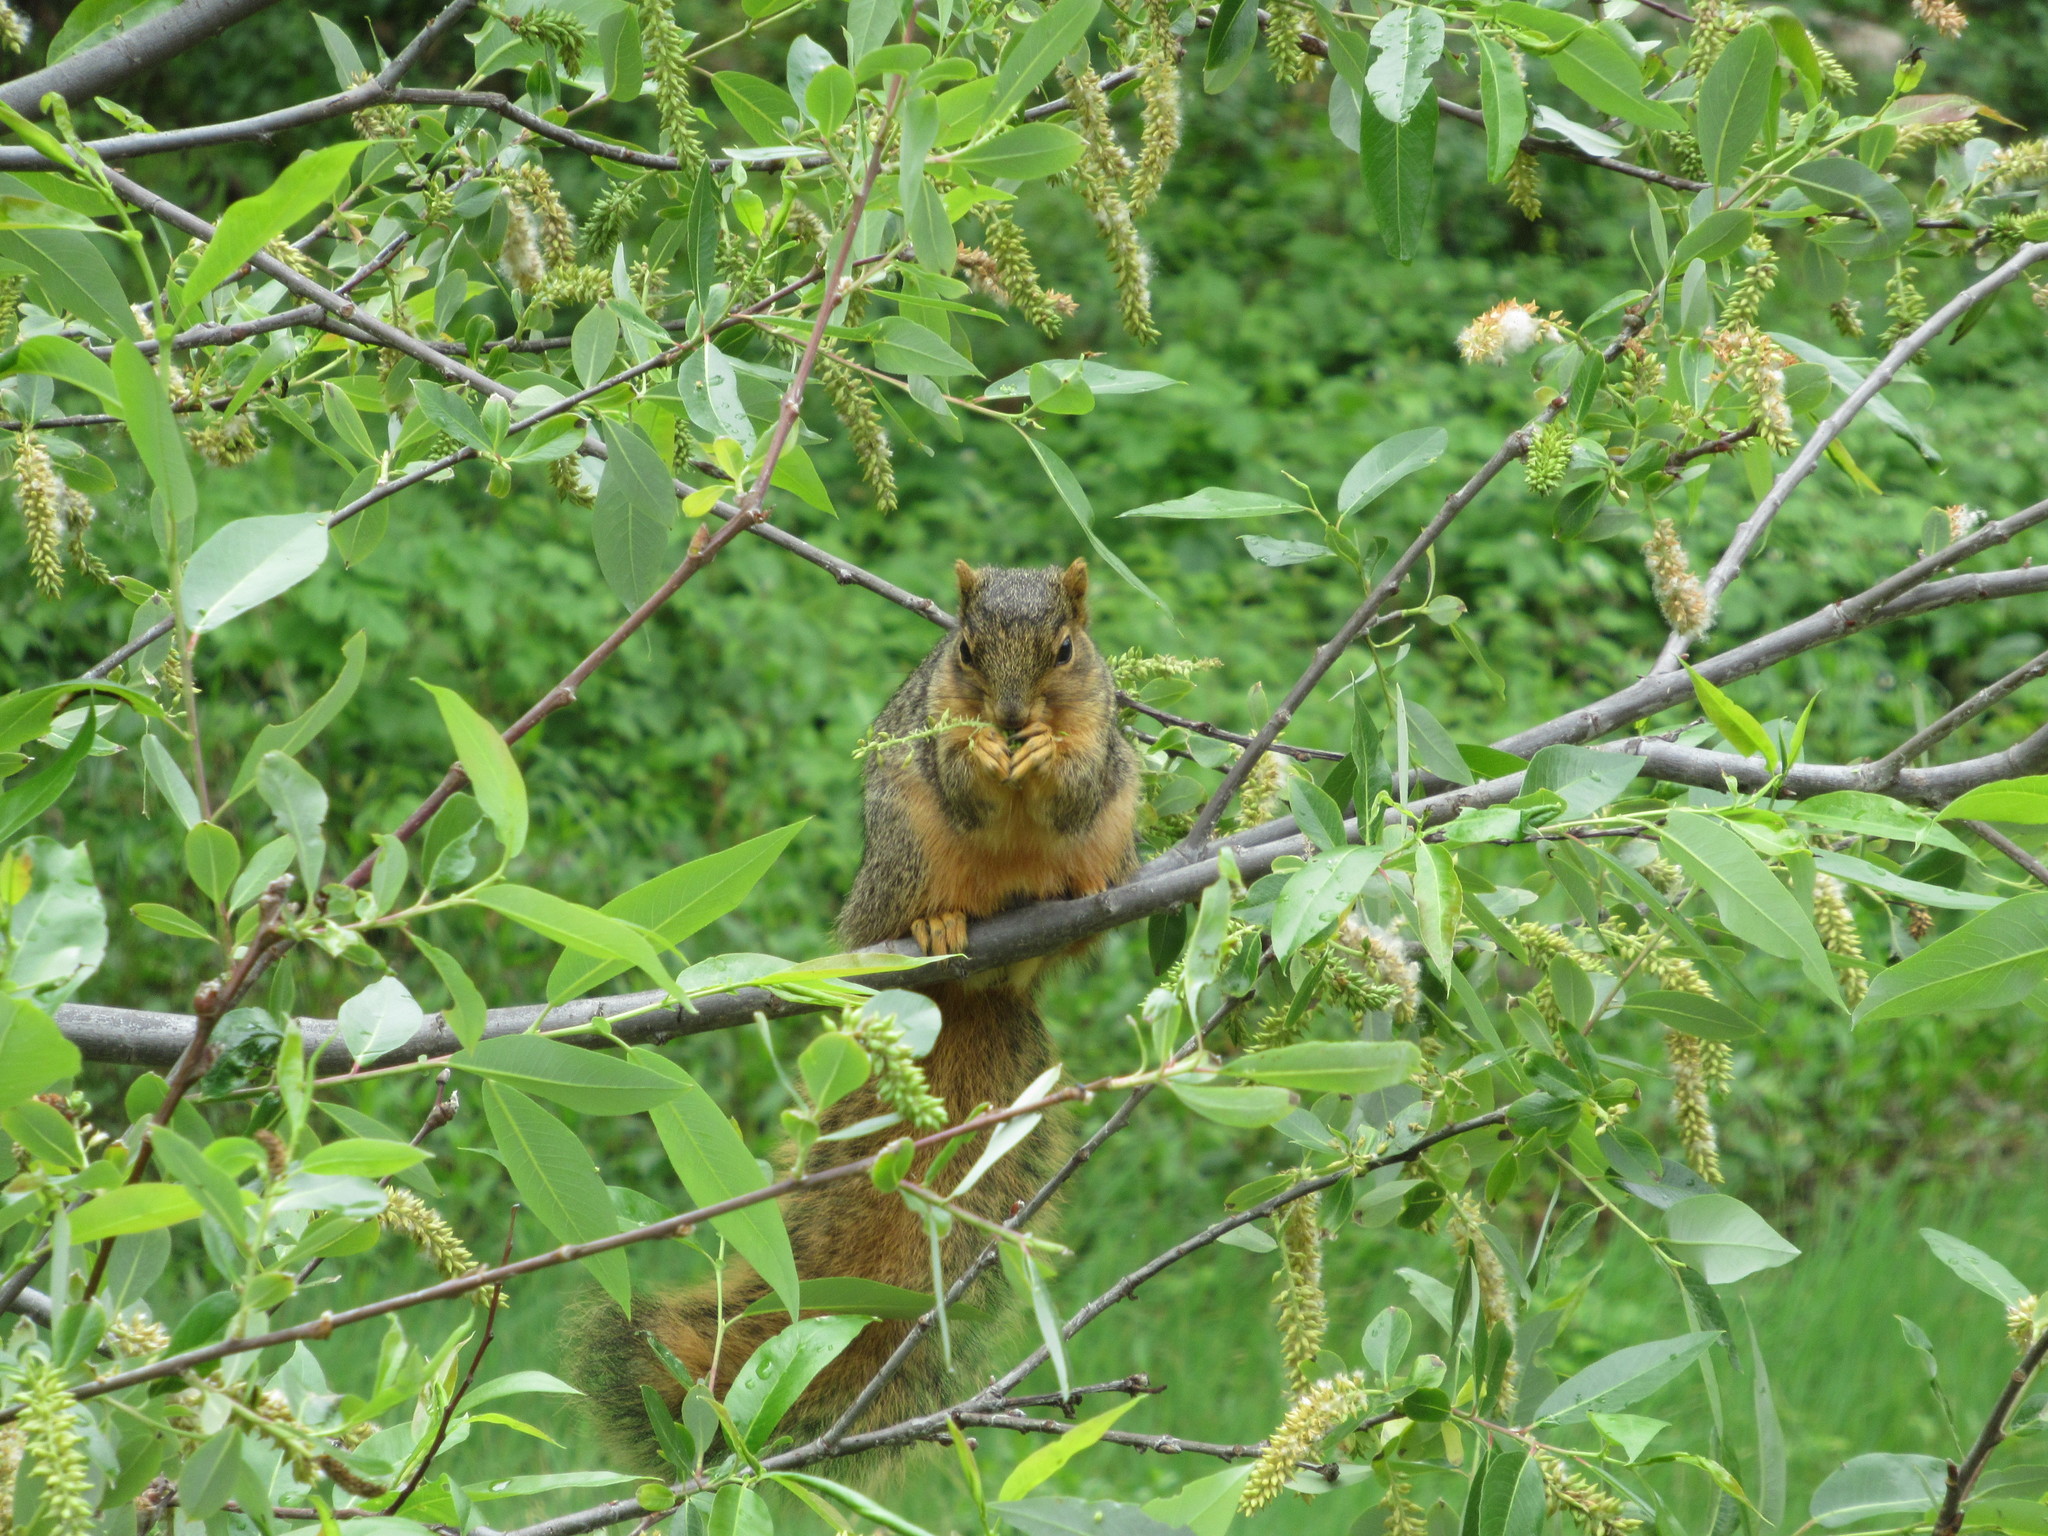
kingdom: Animalia
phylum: Chordata
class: Mammalia
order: Rodentia
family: Sciuridae
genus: Sciurus
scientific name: Sciurus niger
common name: Fox squirrel
